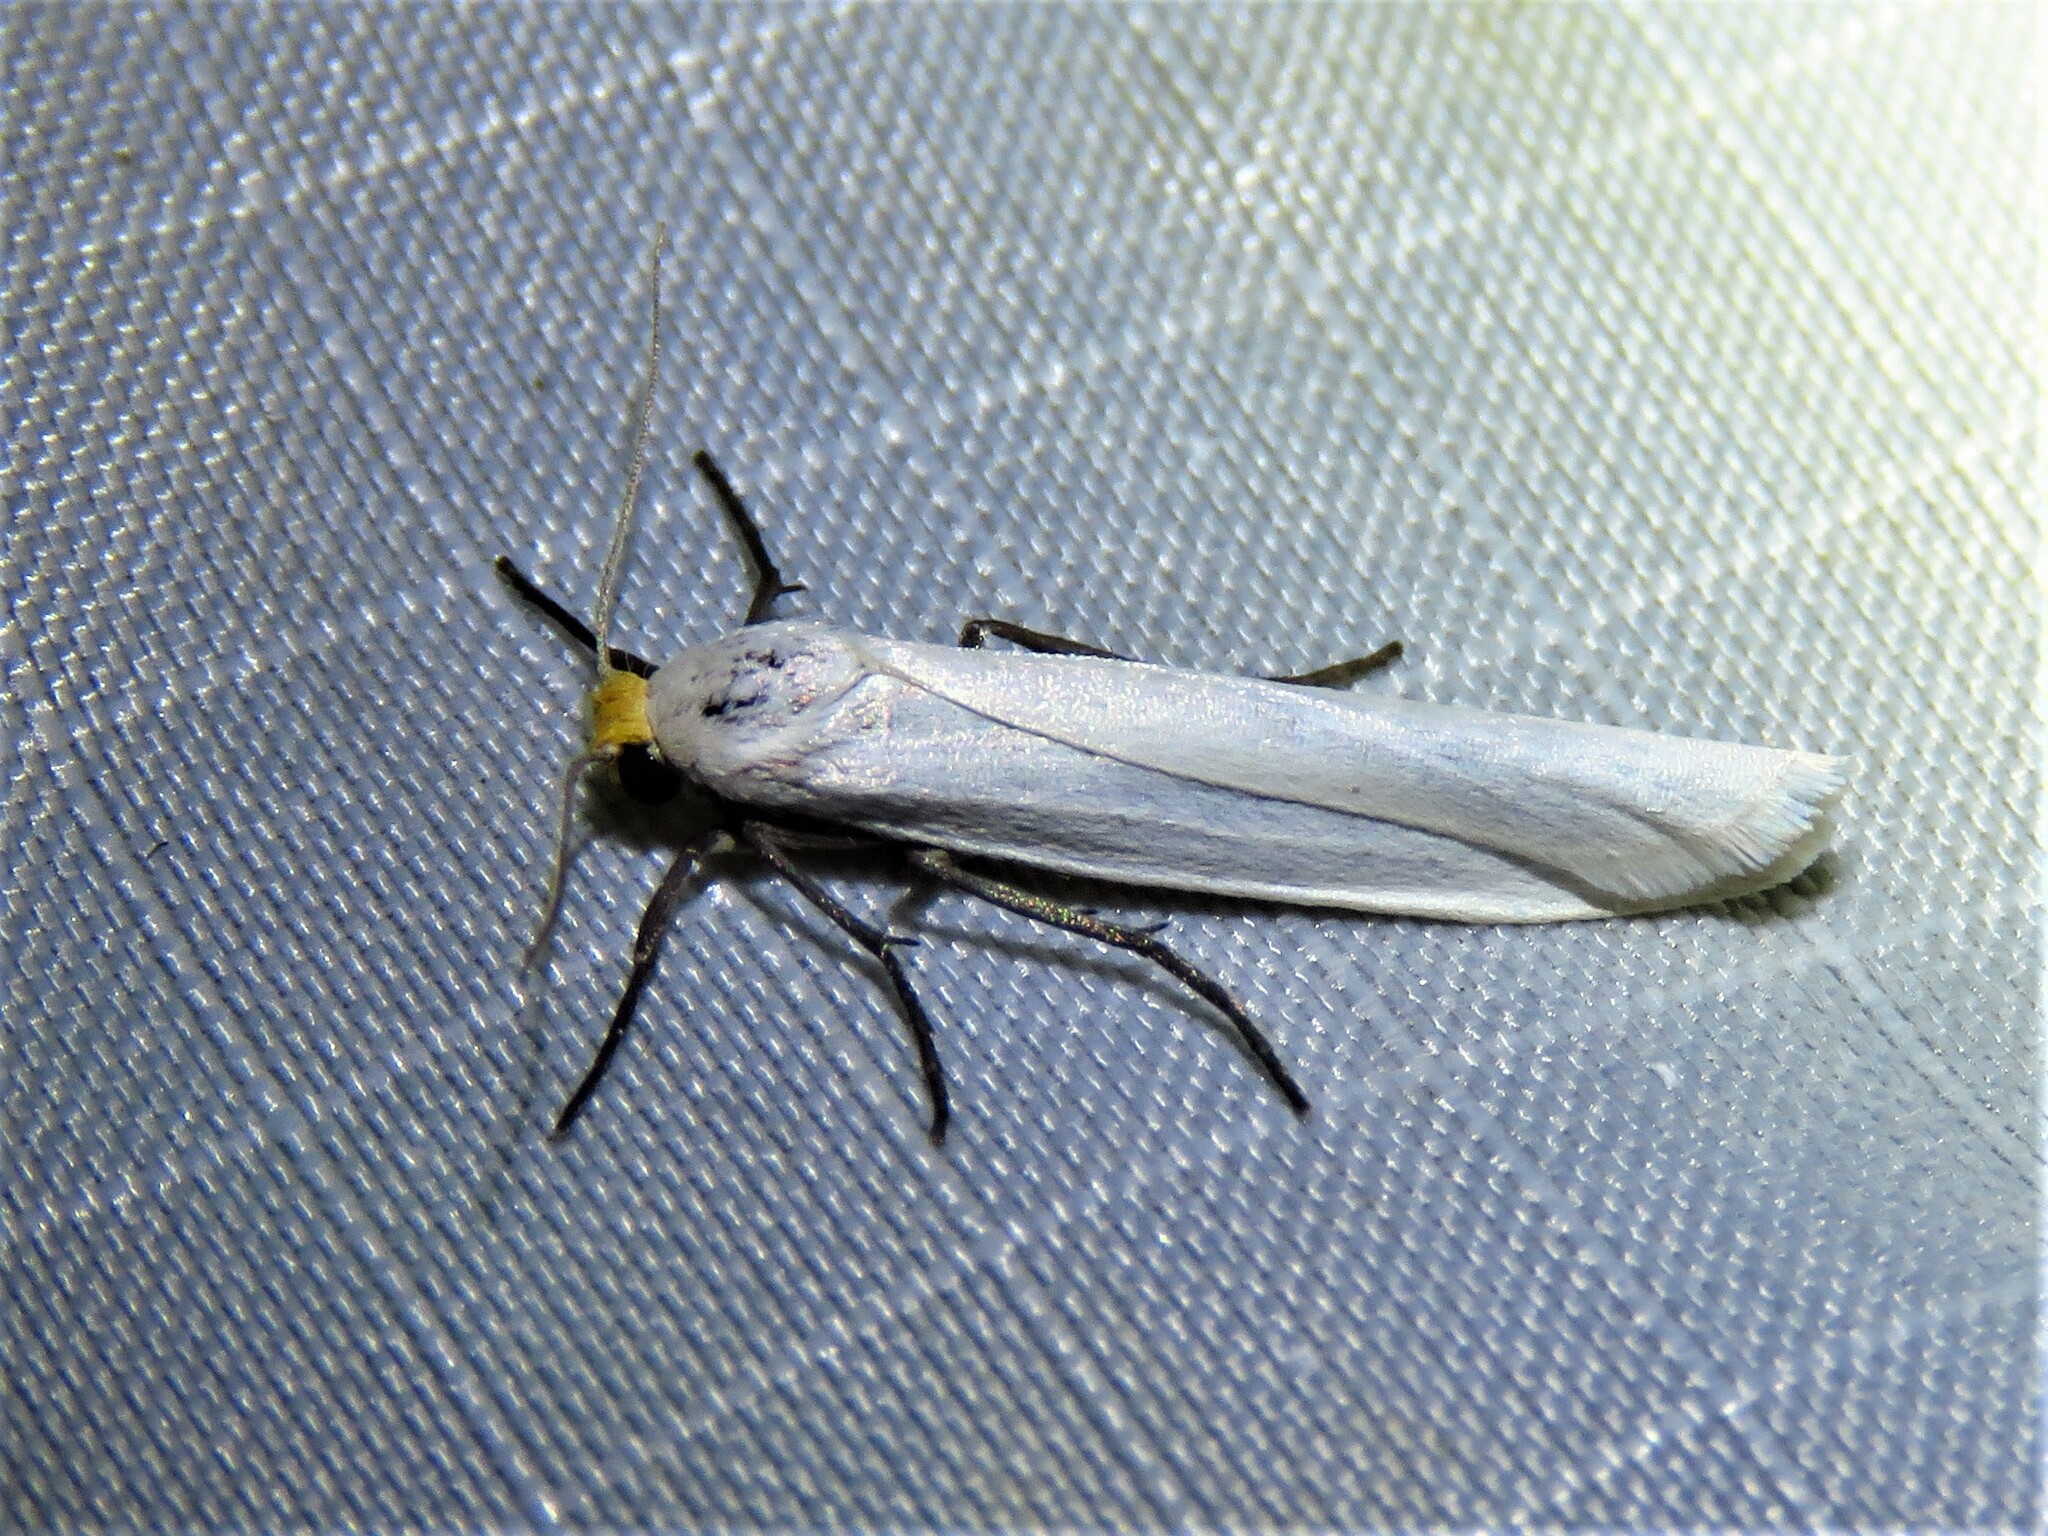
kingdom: Animalia
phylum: Arthropoda
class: Insecta
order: Lepidoptera
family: Erebidae
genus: Crambidia
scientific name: Crambidia cephalica
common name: Yellow-headed lichen moth
